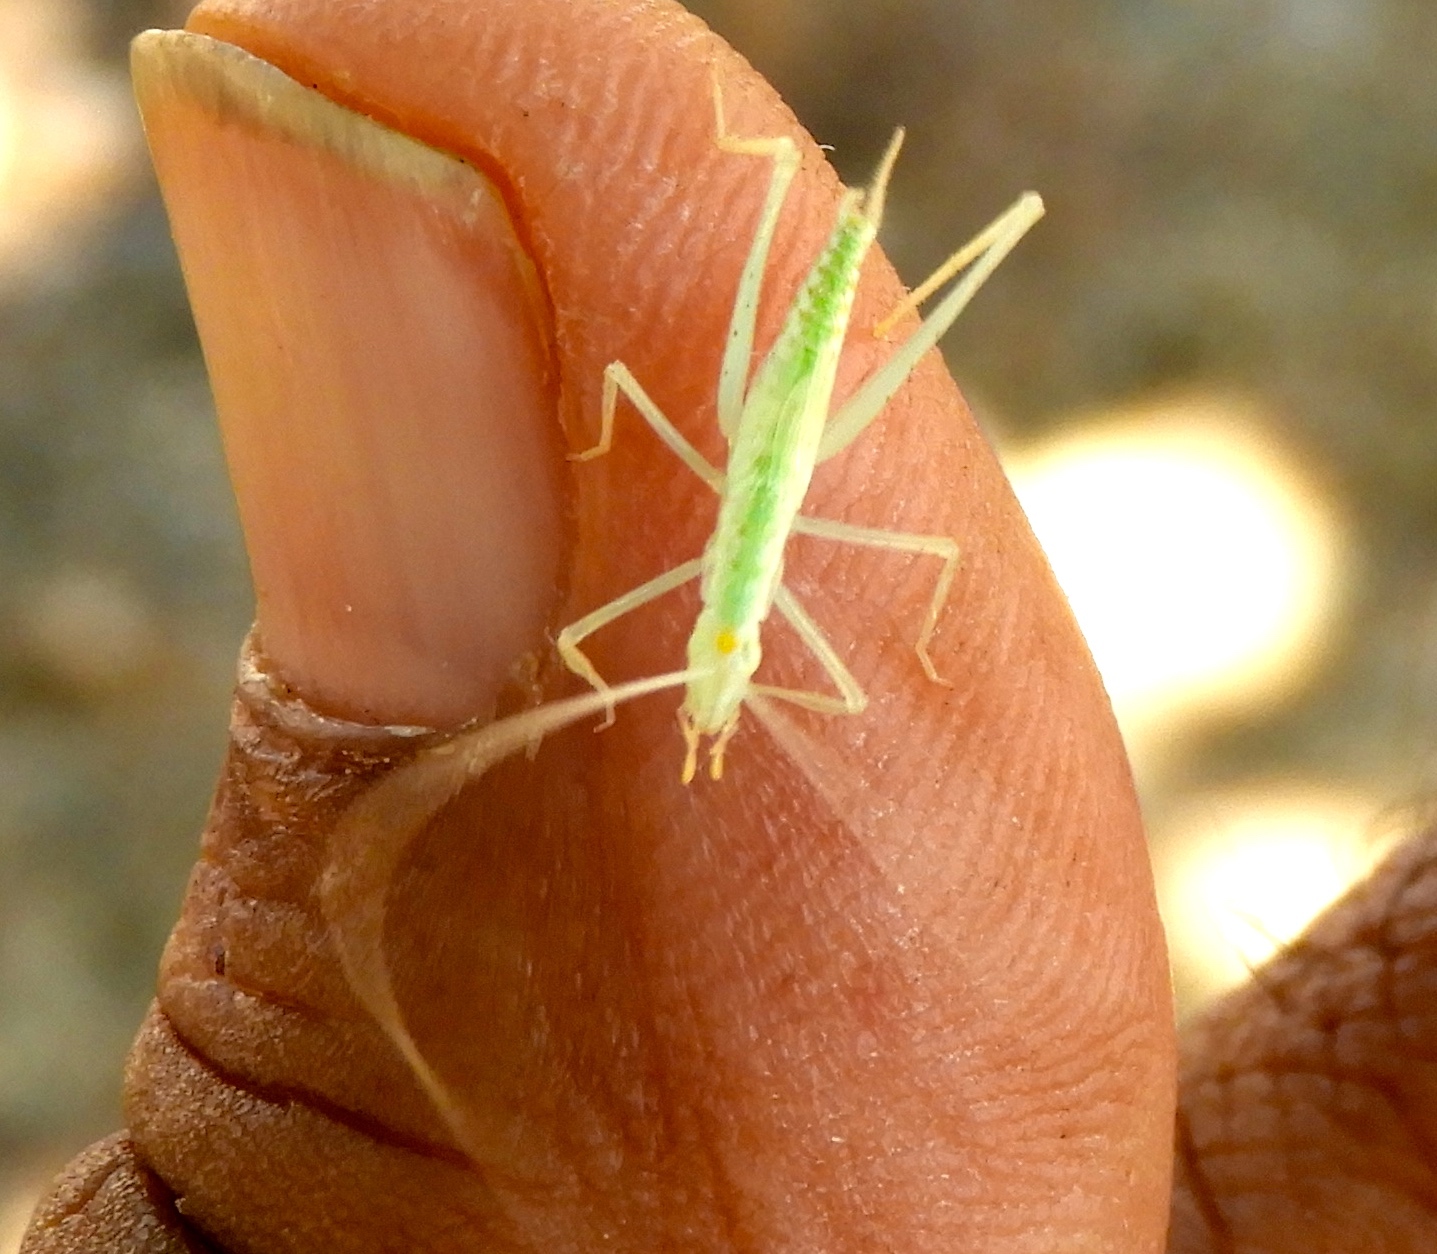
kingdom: Animalia
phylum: Arthropoda
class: Insecta
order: Orthoptera
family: Gryllidae
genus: Oecanthus
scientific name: Oecanthus
